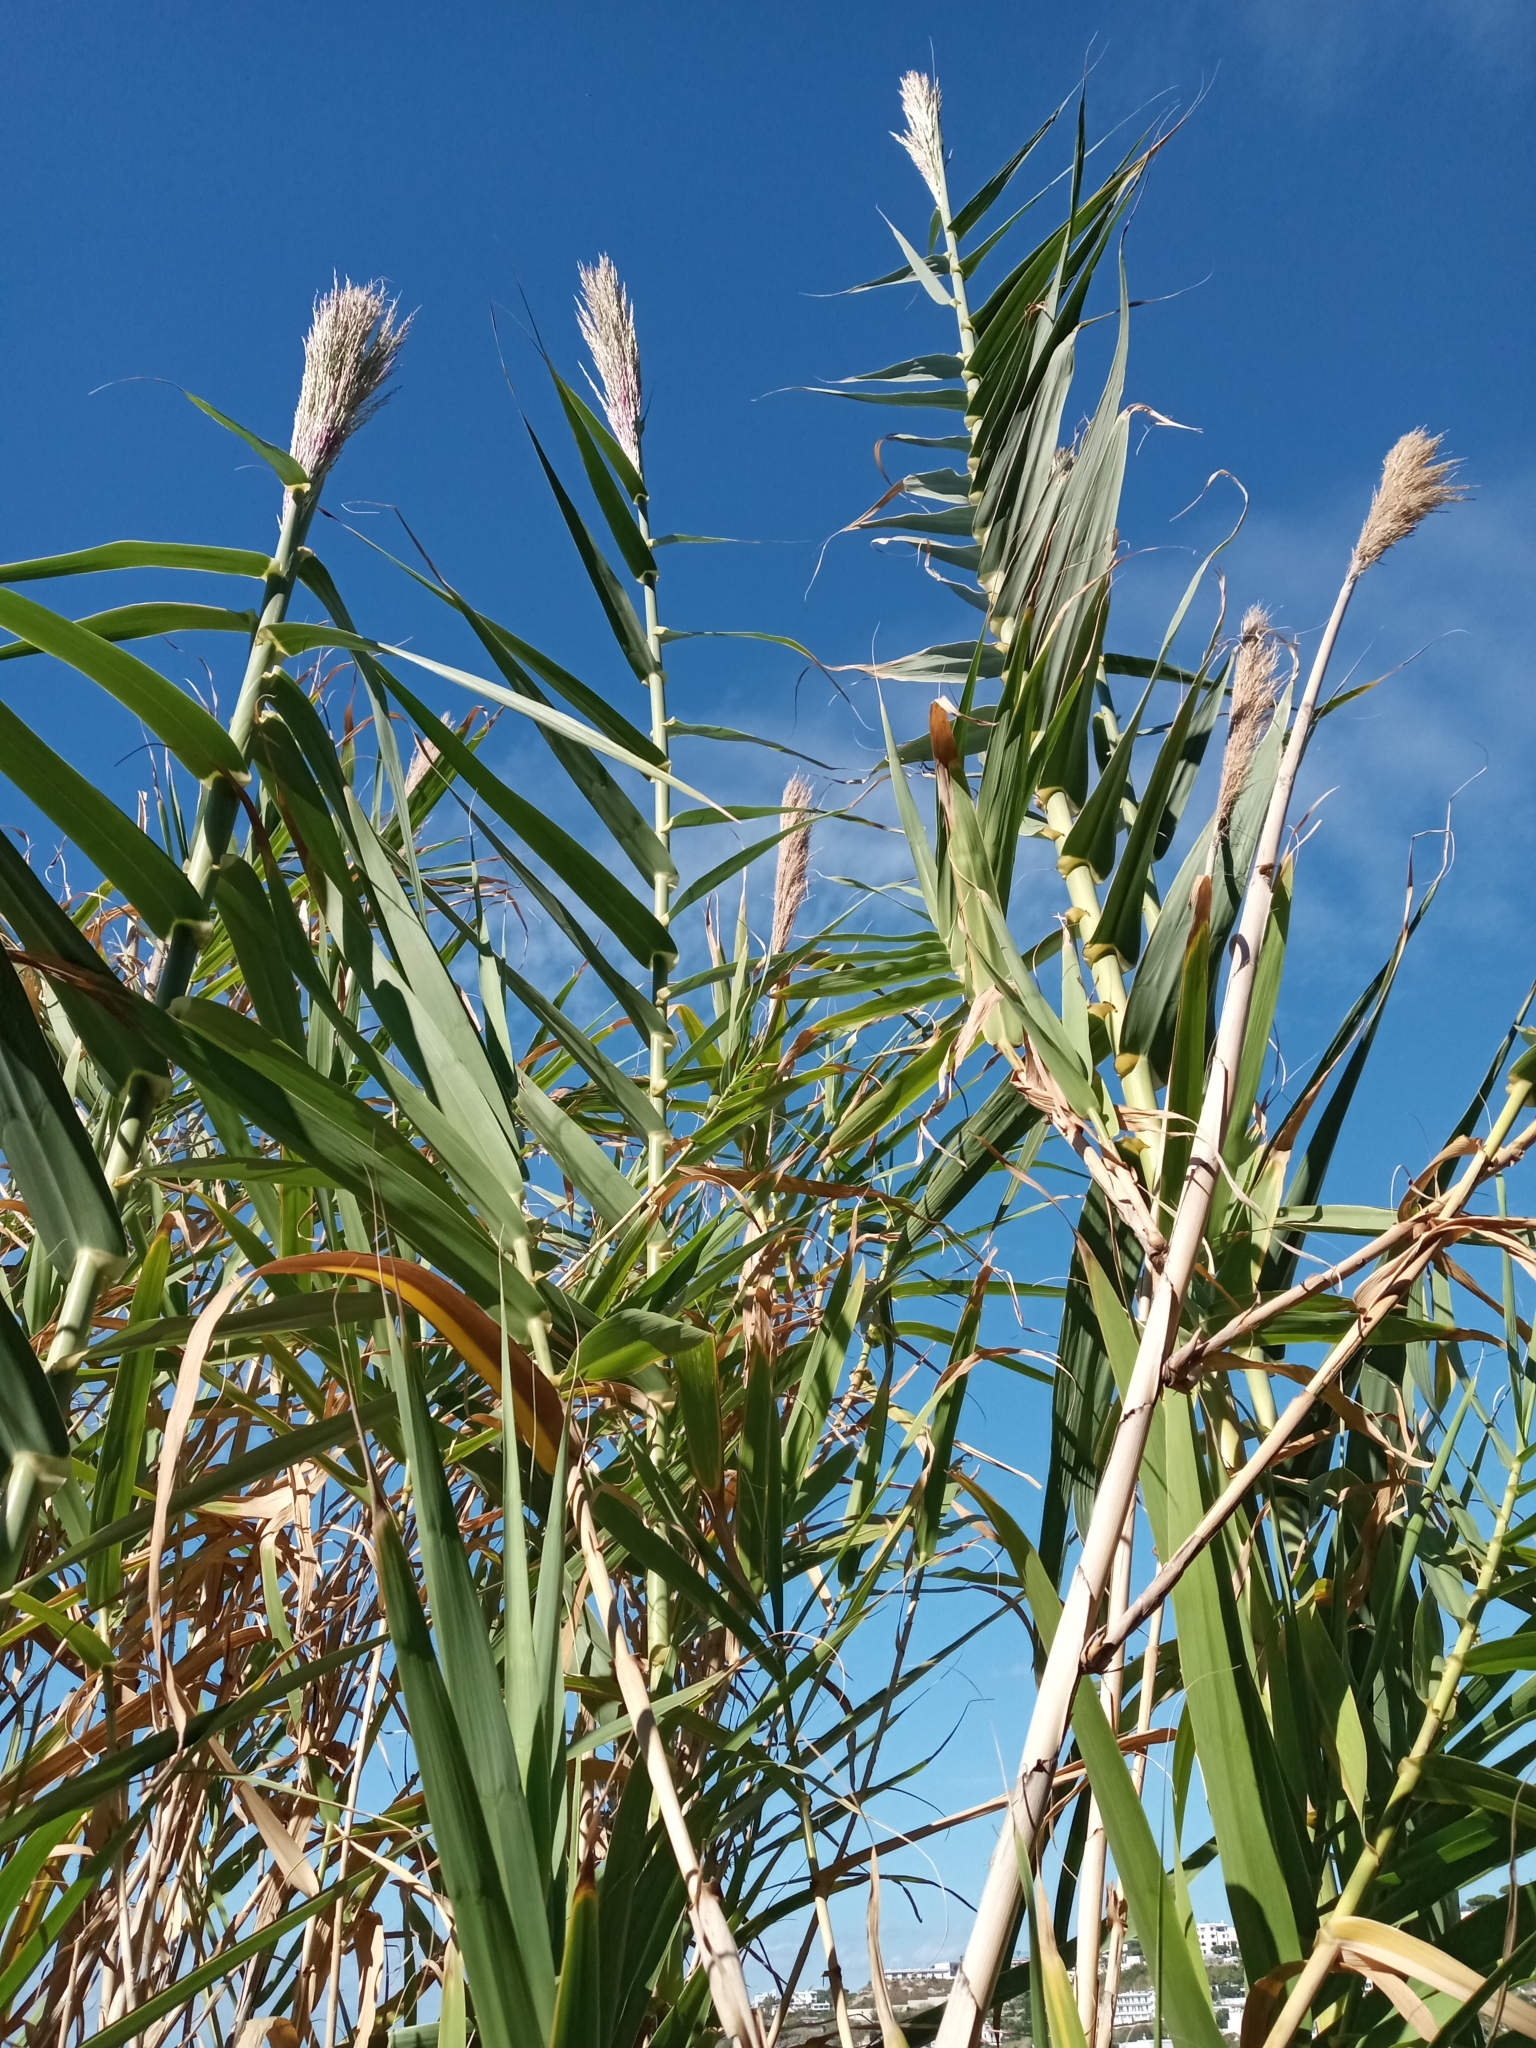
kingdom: Plantae
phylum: Tracheophyta
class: Liliopsida
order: Poales
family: Poaceae
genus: Arundo
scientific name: Arundo donax
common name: Giant reed
